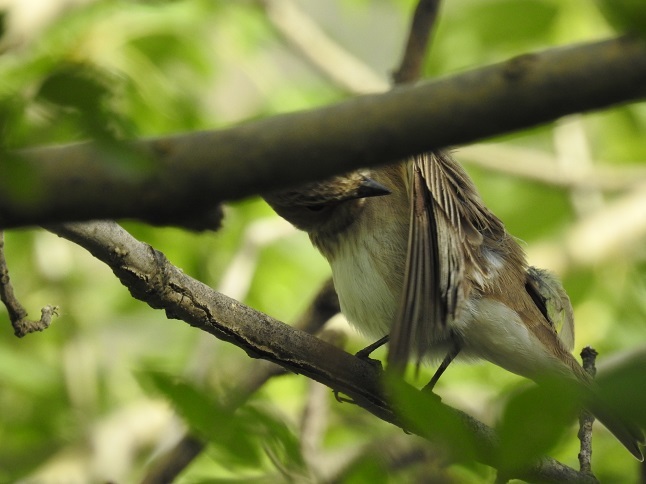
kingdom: Animalia
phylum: Chordata
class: Aves
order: Passeriformes
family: Muscicapidae
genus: Muscicapa
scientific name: Muscicapa striata
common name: Spotted flycatcher
